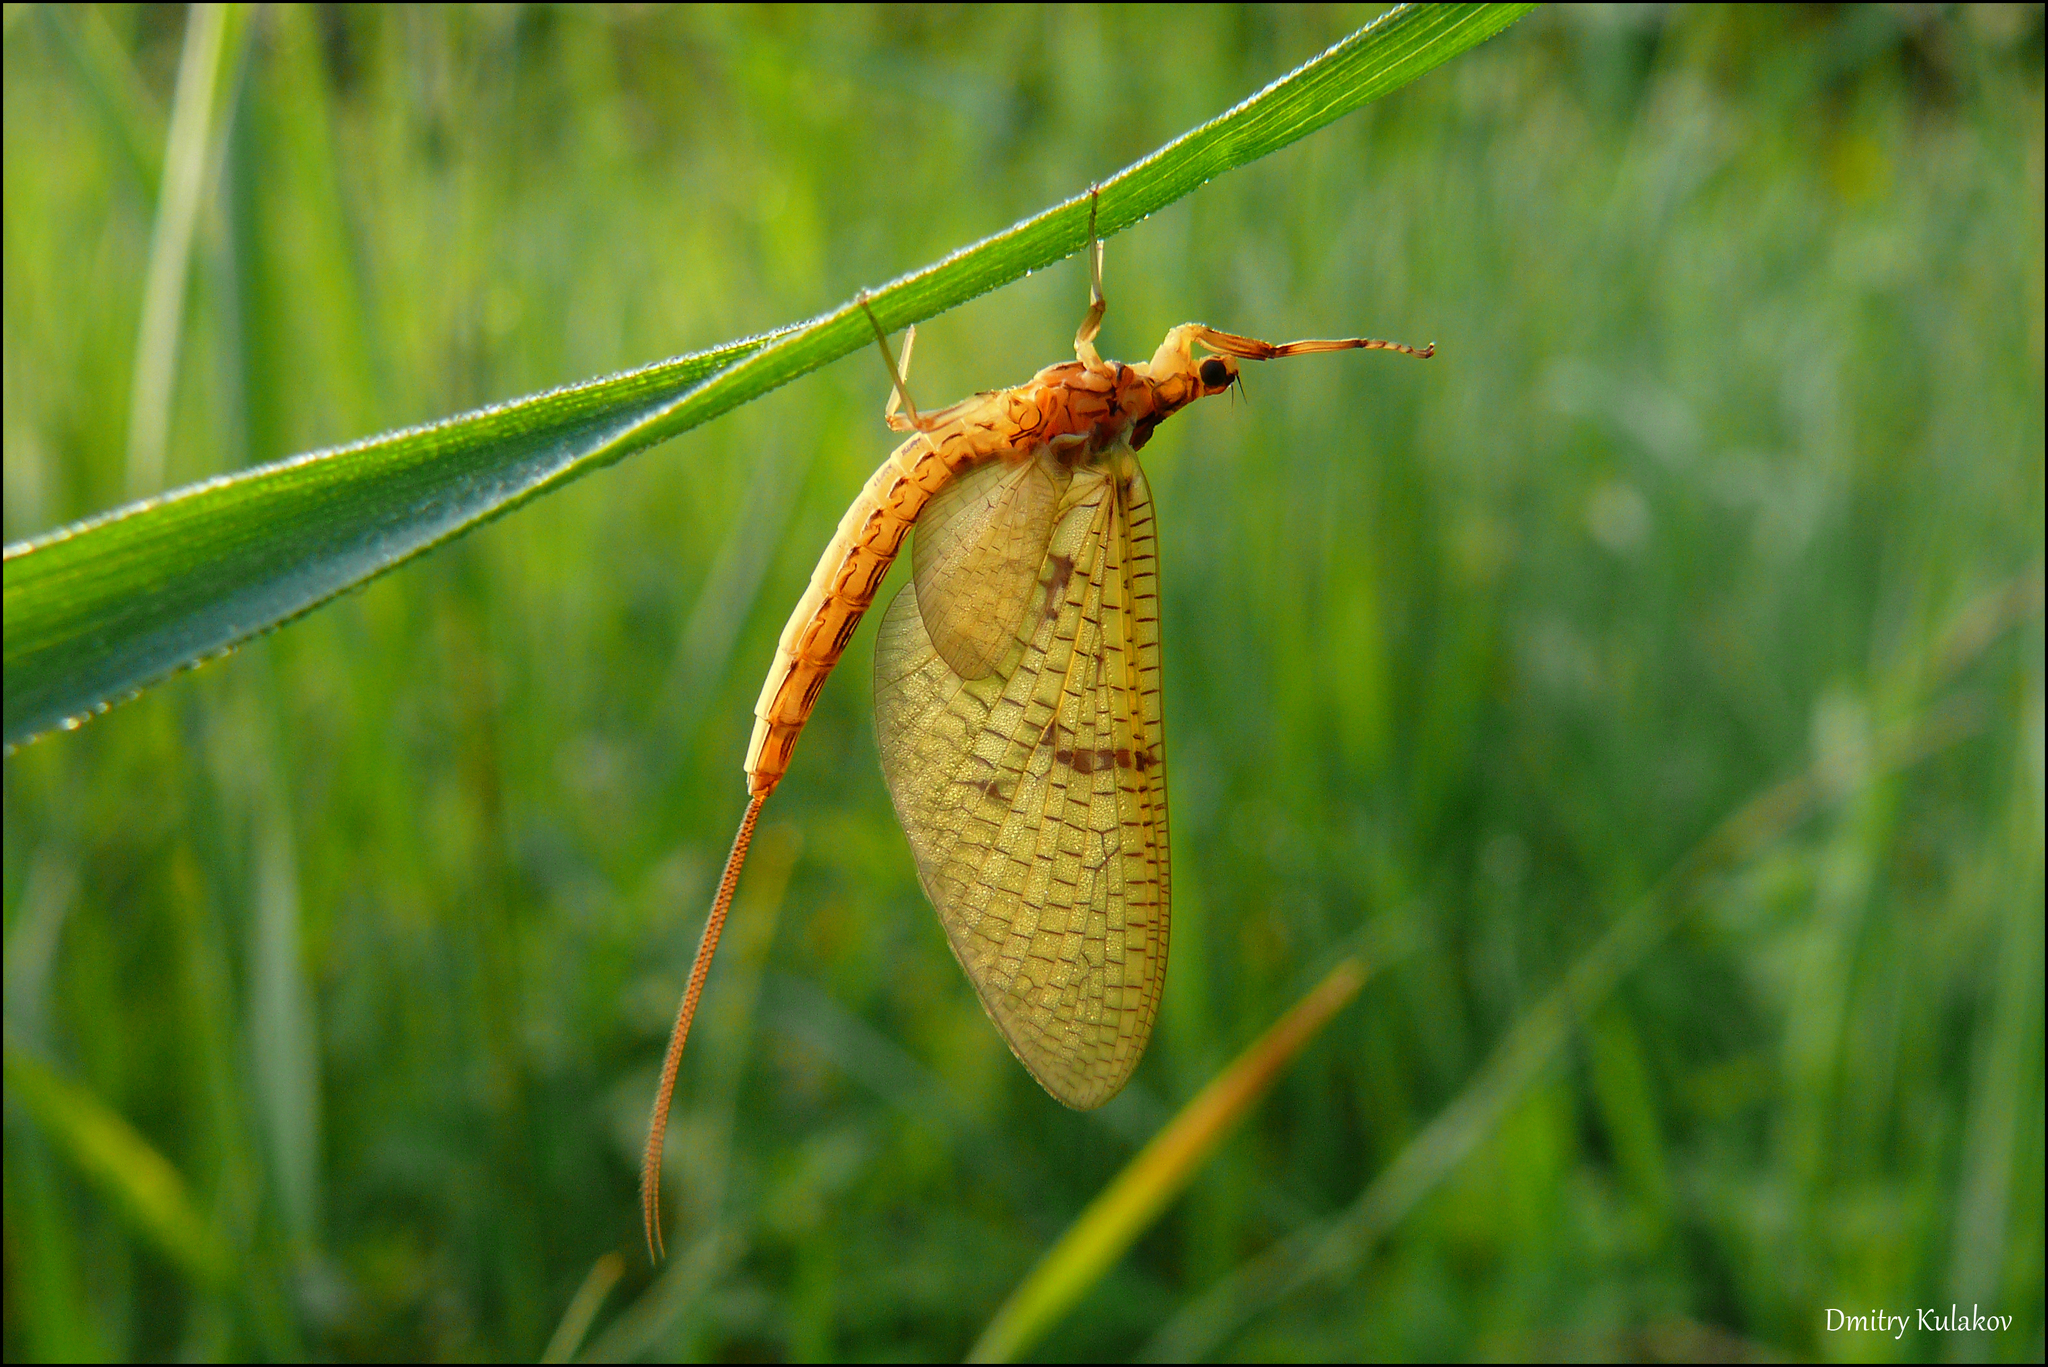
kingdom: Animalia
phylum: Arthropoda
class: Insecta
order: Ephemeroptera
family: Ephemeridae
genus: Ephemera
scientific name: Ephemera lineata
